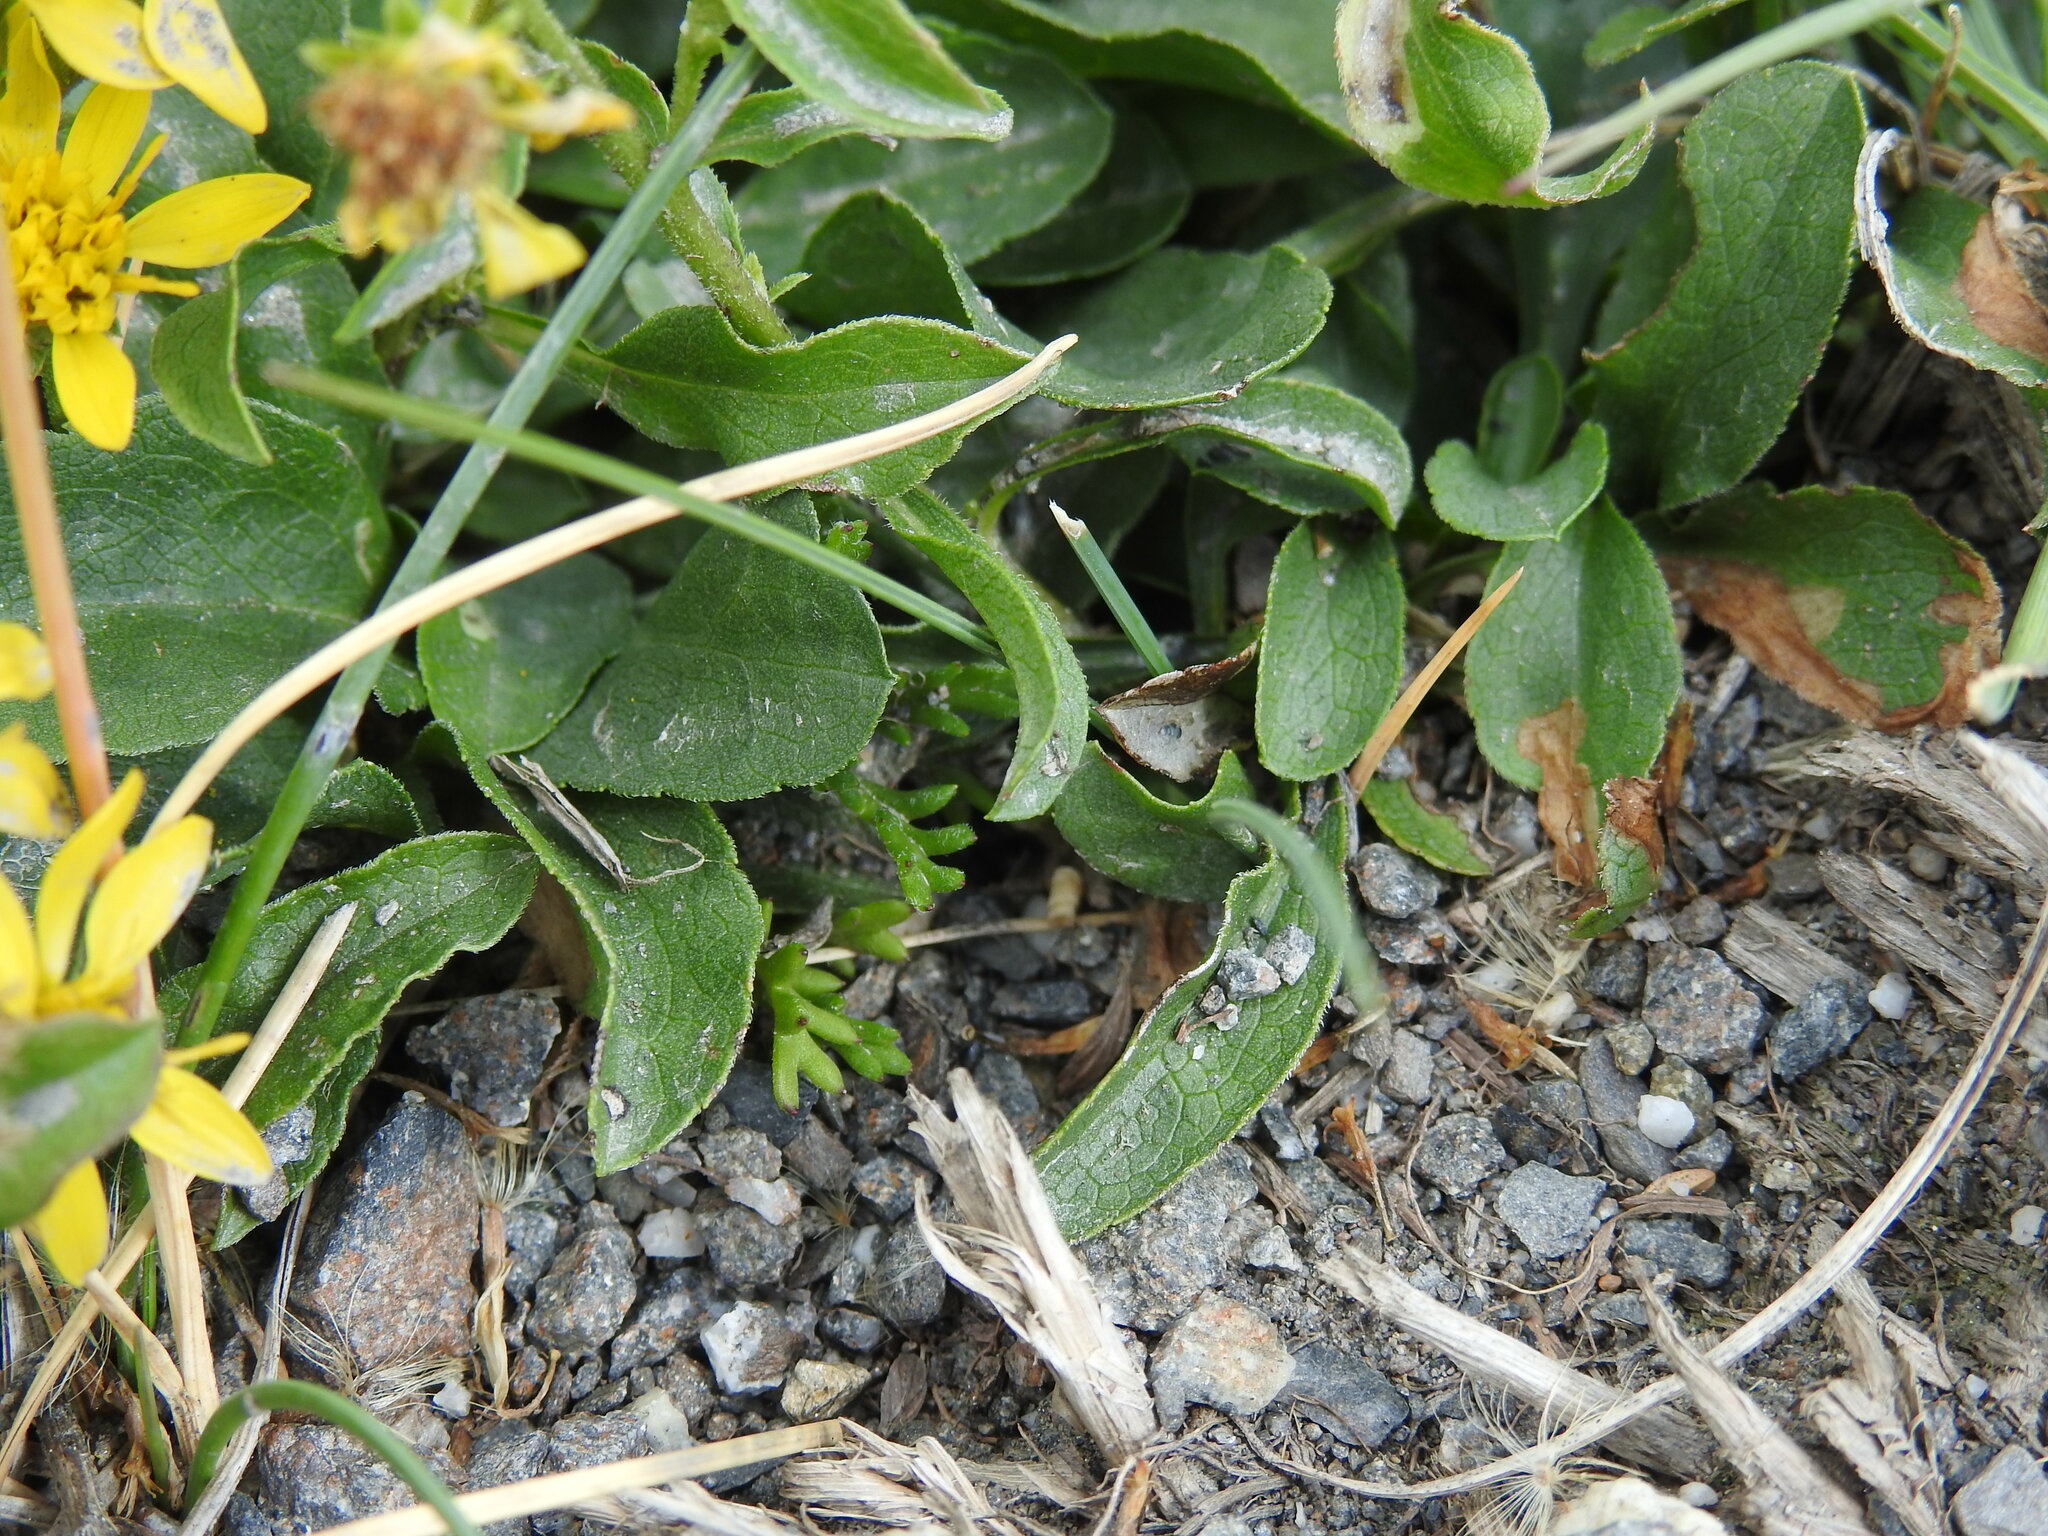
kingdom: Plantae
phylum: Tracheophyta
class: Magnoliopsida
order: Asterales
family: Asteraceae
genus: Solidago
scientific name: Solidago virgaurea
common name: Goldenrod
